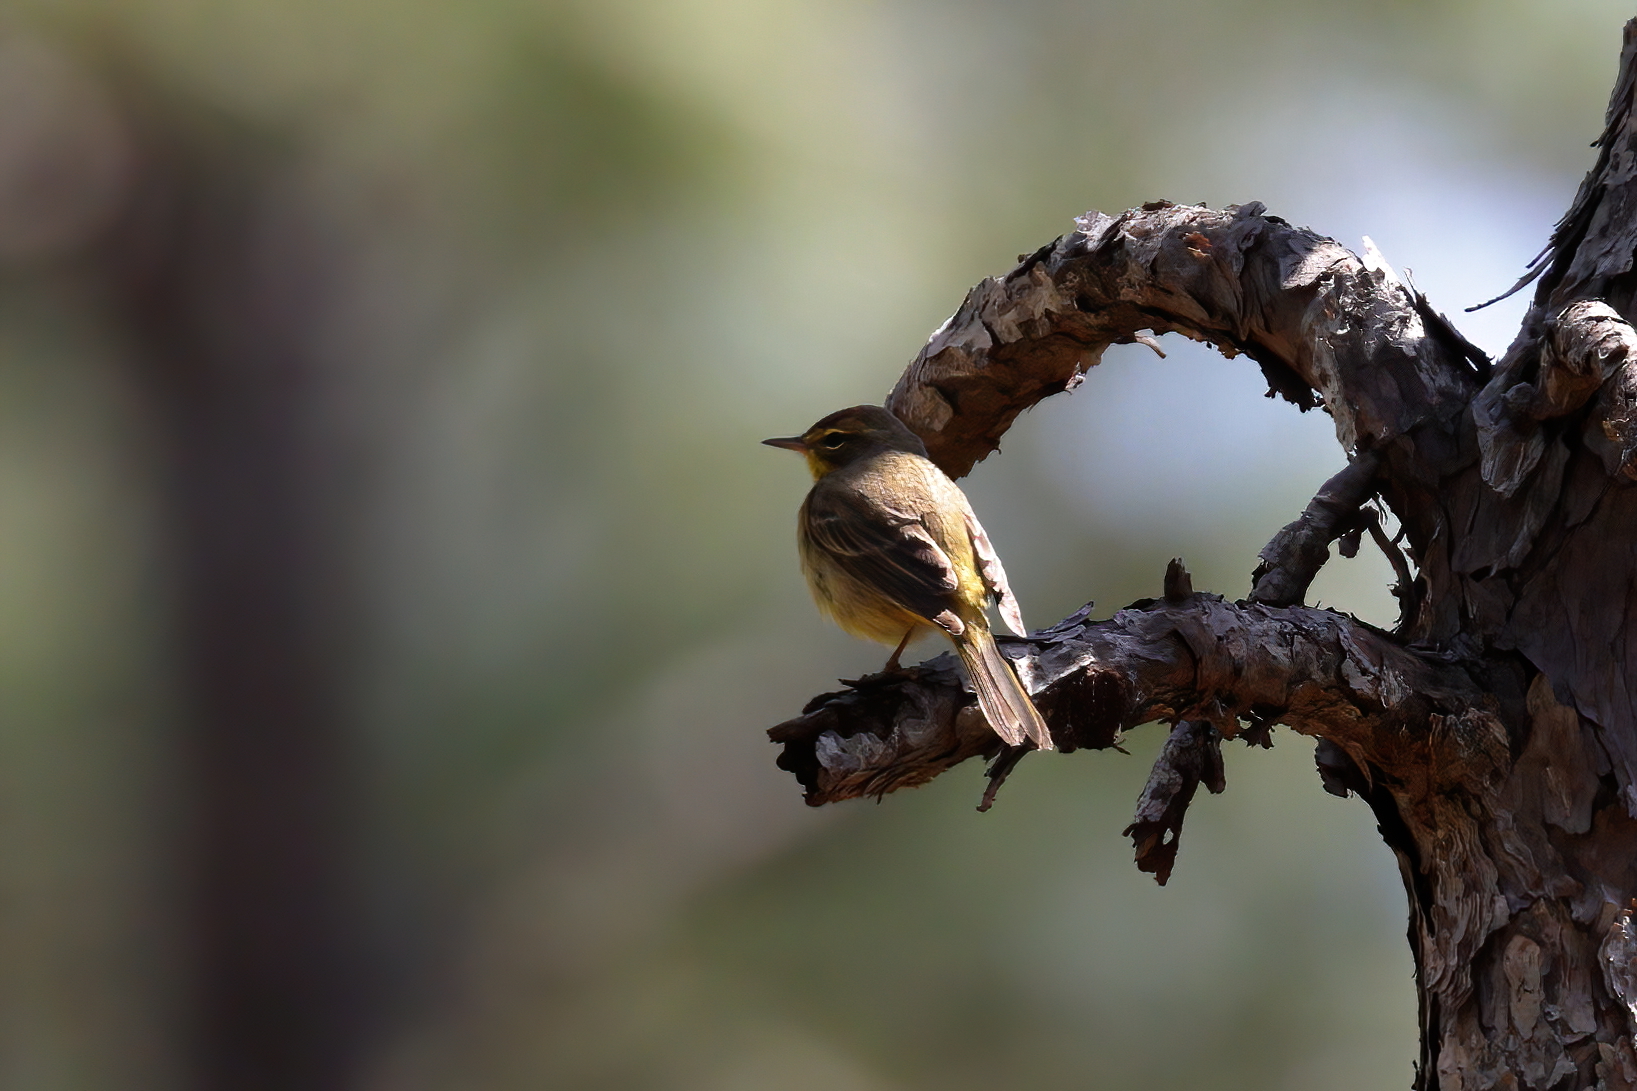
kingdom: Animalia
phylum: Chordata
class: Aves
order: Passeriformes
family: Parulidae
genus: Setophaga
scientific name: Setophaga palmarum
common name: Palm warbler
